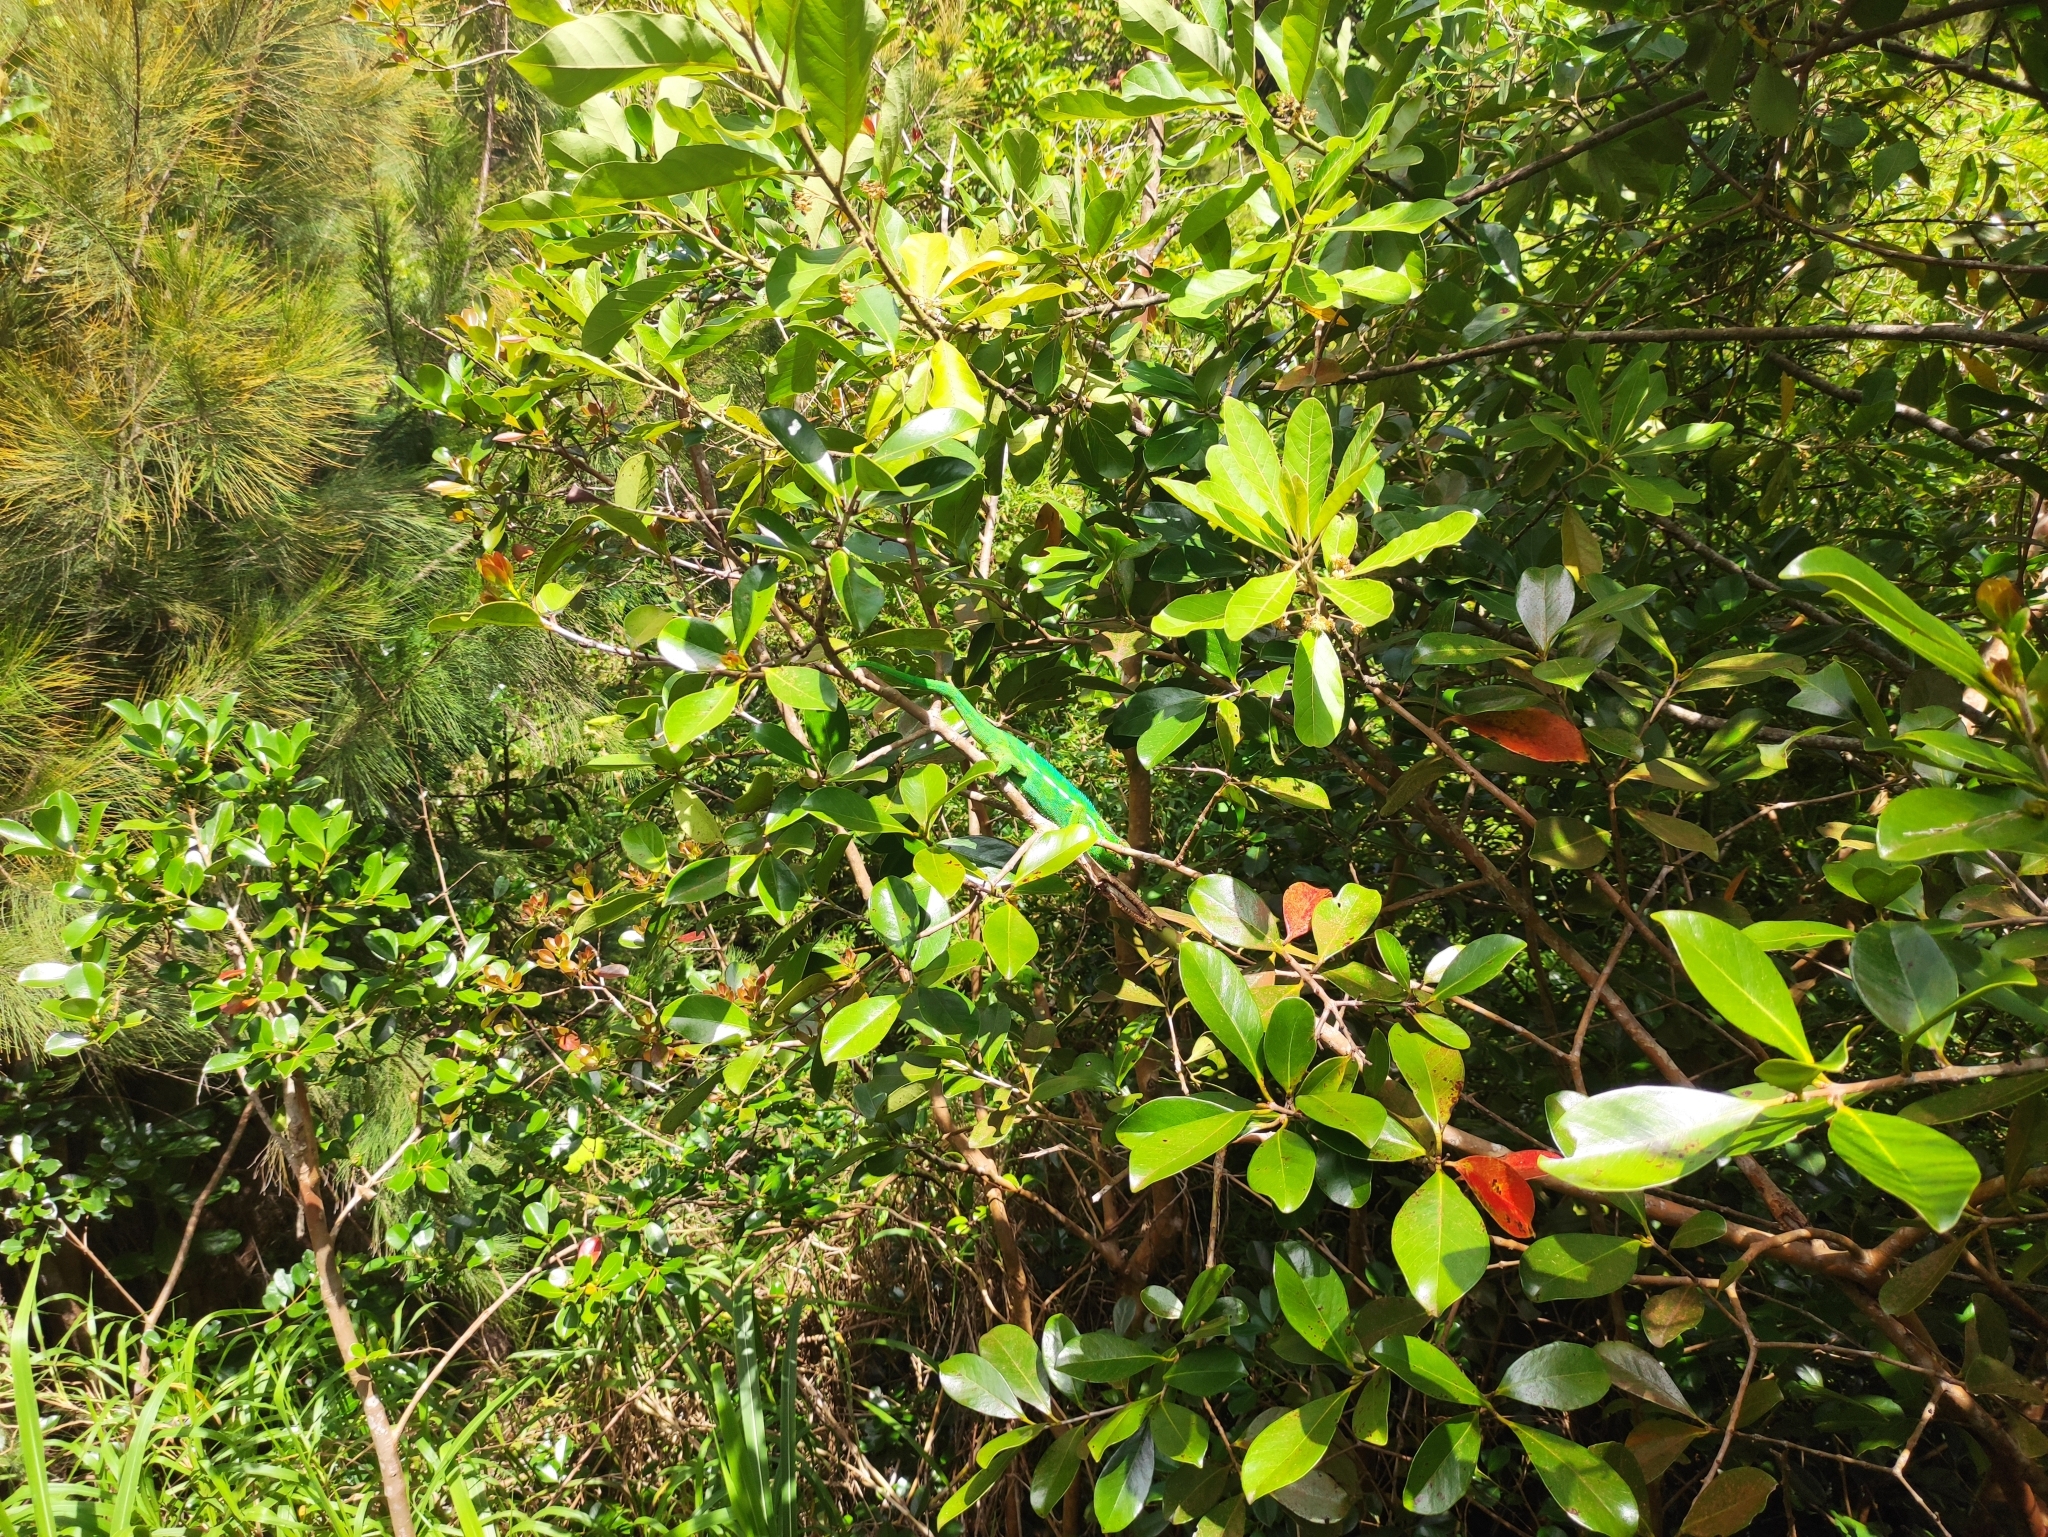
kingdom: Animalia
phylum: Chordata
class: Squamata
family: Chamaeleonidae
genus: Furcifer
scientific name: Furcifer pardalis
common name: Panther chameleon
